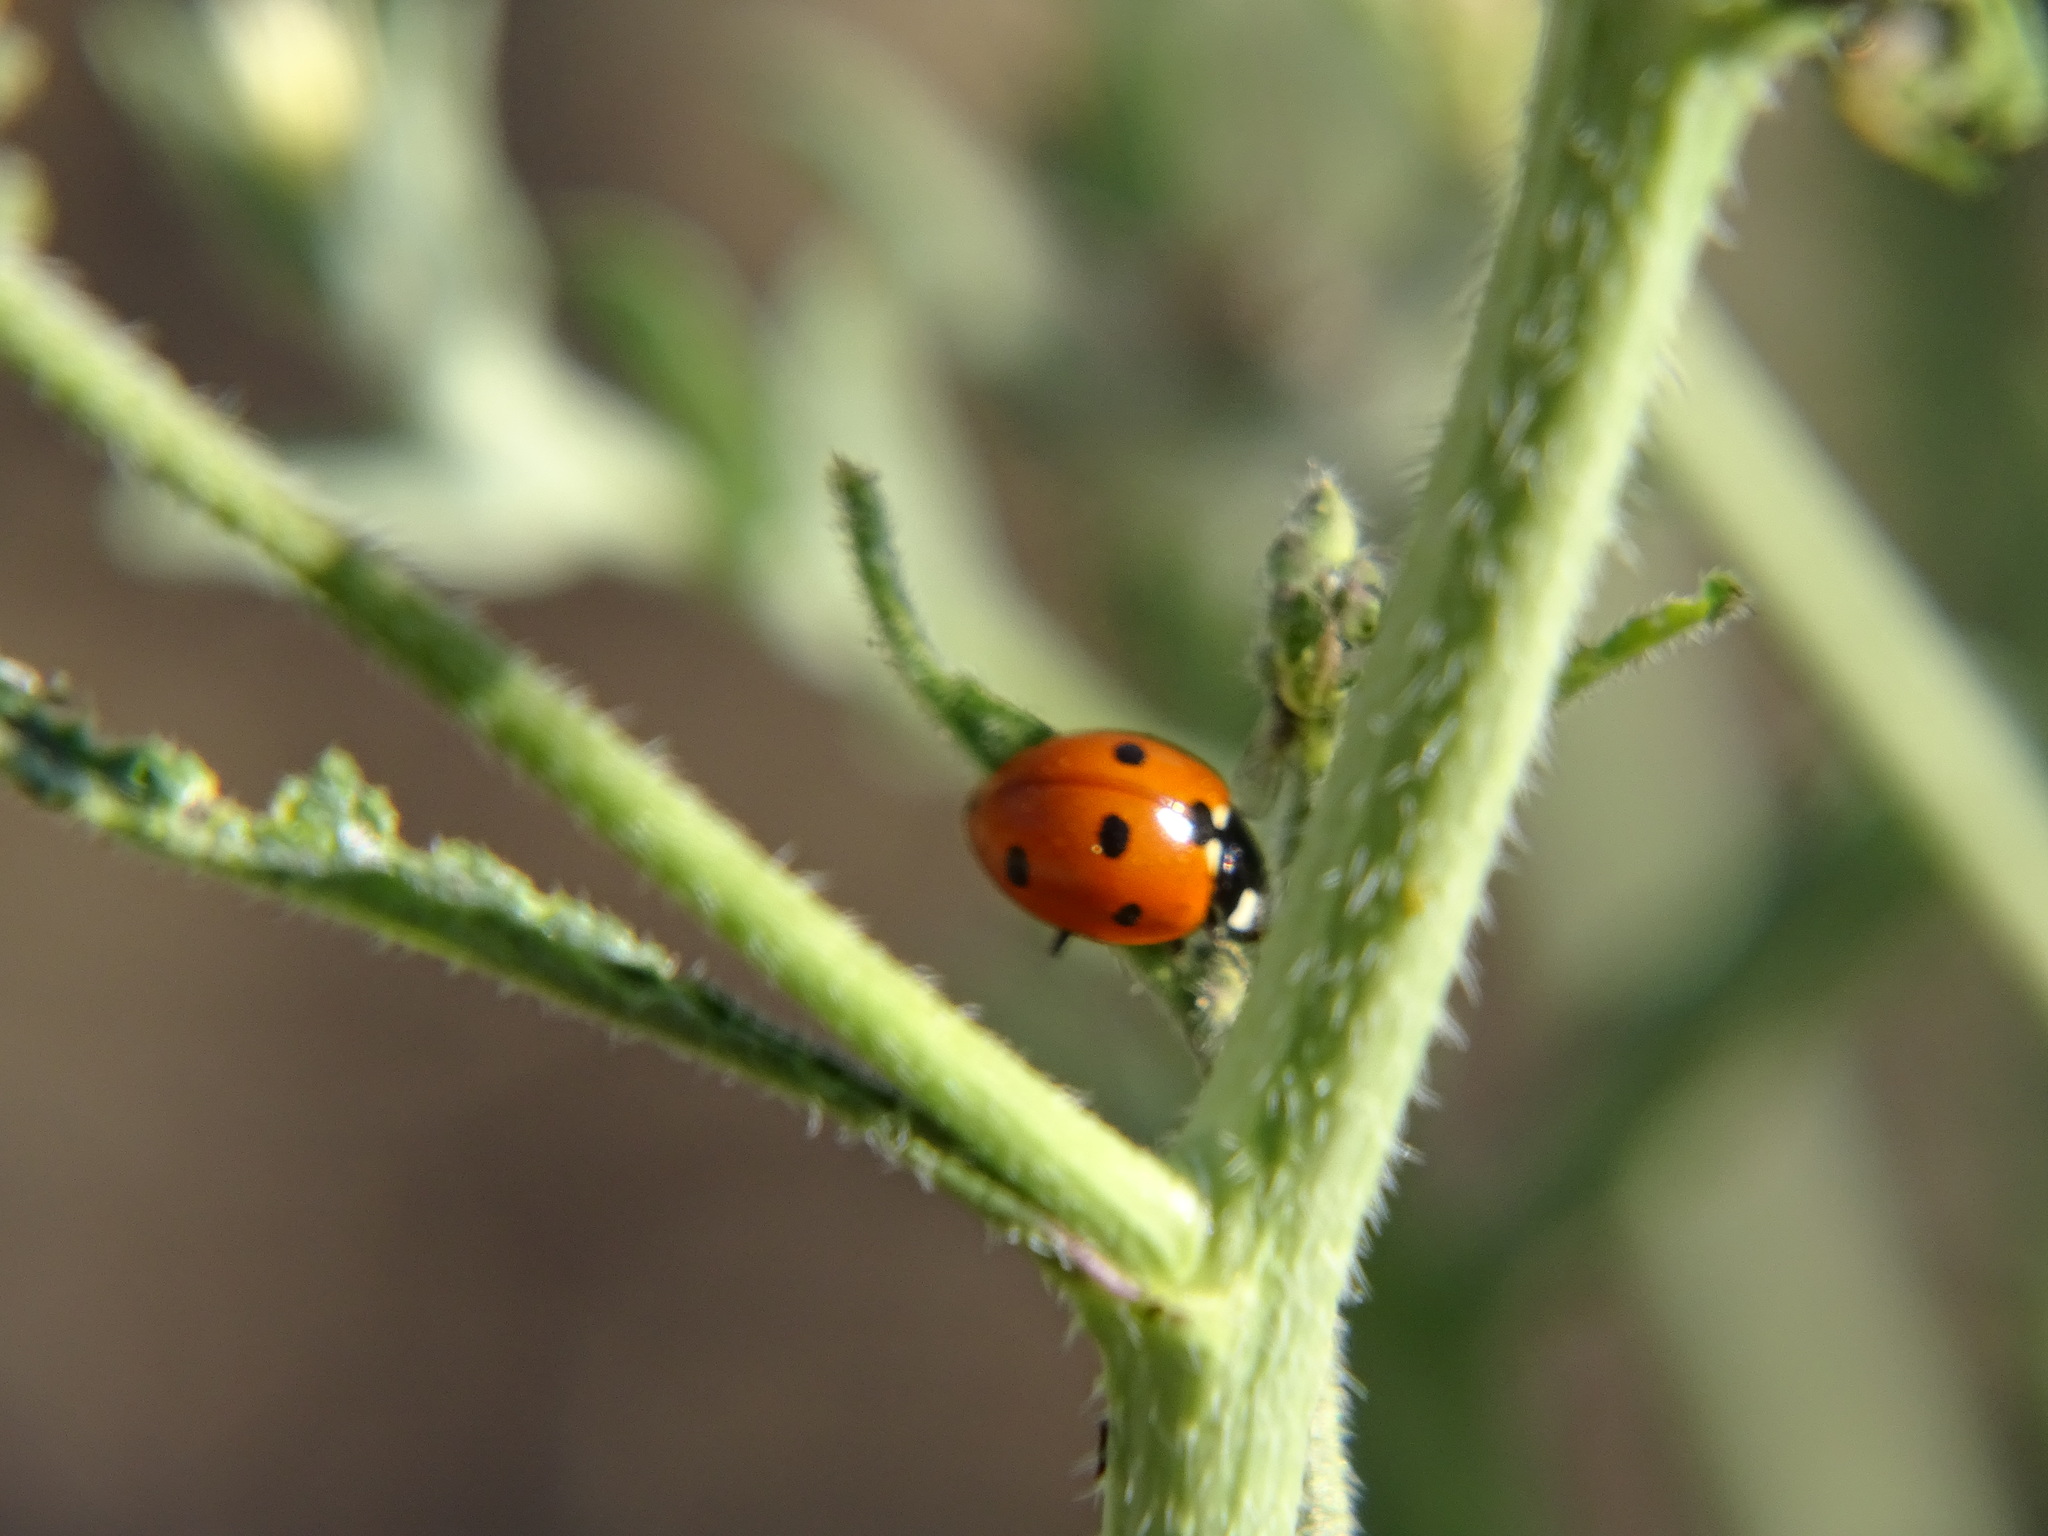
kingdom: Animalia
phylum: Arthropoda
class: Insecta
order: Coleoptera
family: Coccinellidae
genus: Coccinella
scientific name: Coccinella septempunctata
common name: Sevenspotted lady beetle
